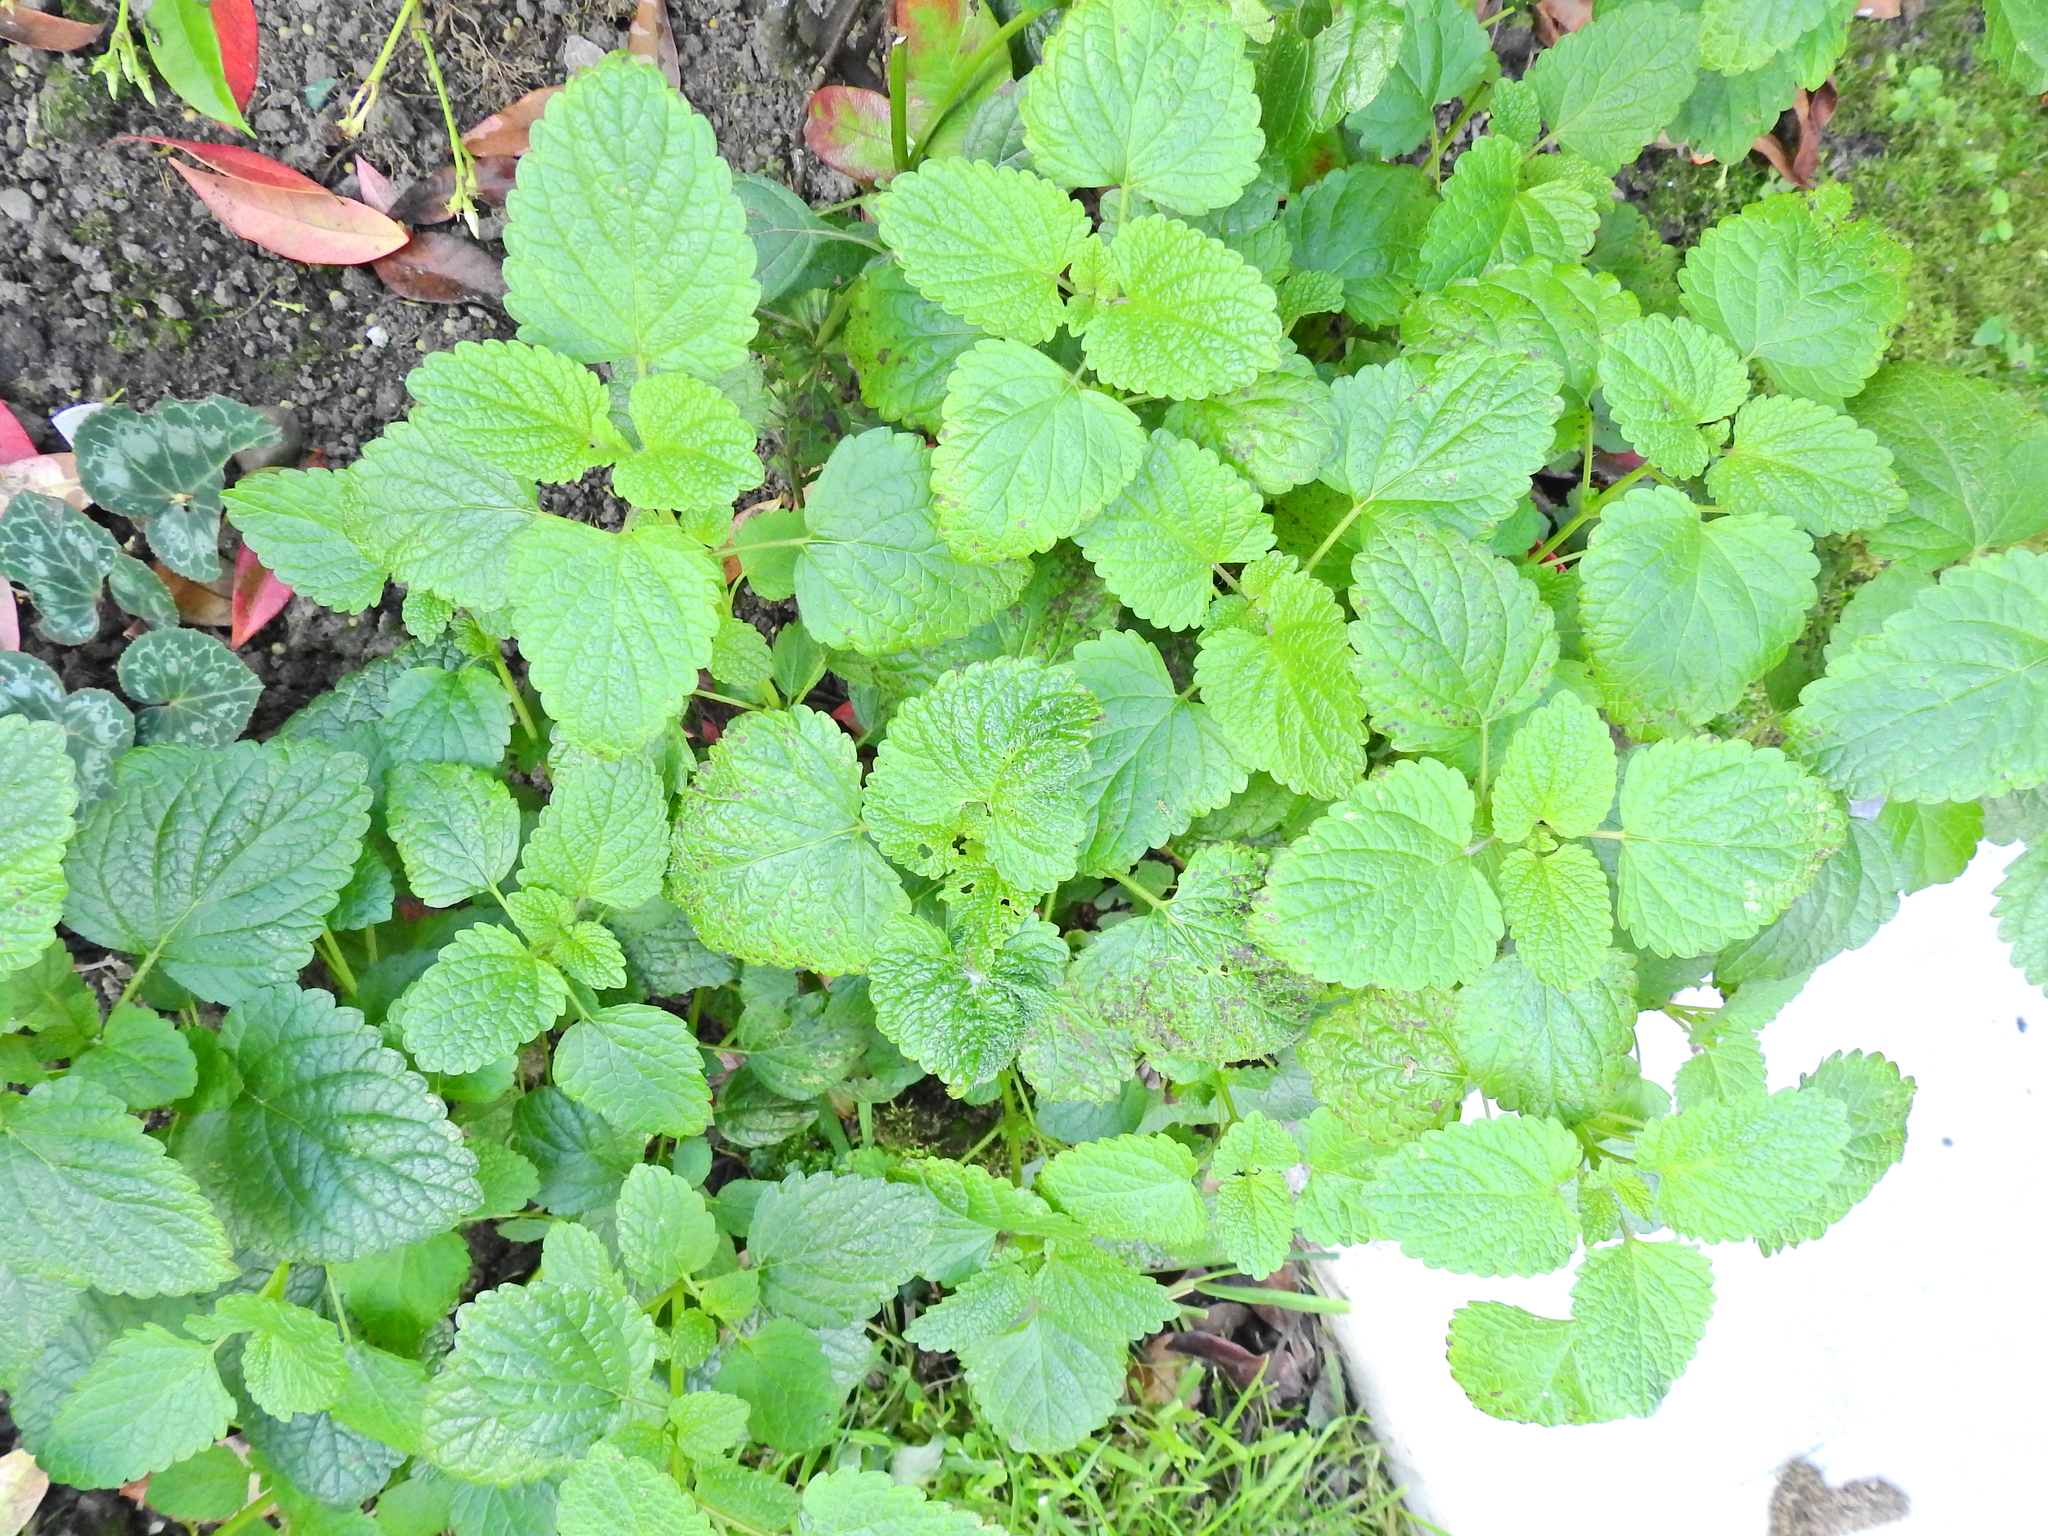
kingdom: Plantae
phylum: Tracheophyta
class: Magnoliopsida
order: Lamiales
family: Lamiaceae
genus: Melissa
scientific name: Melissa officinalis
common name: Balm
